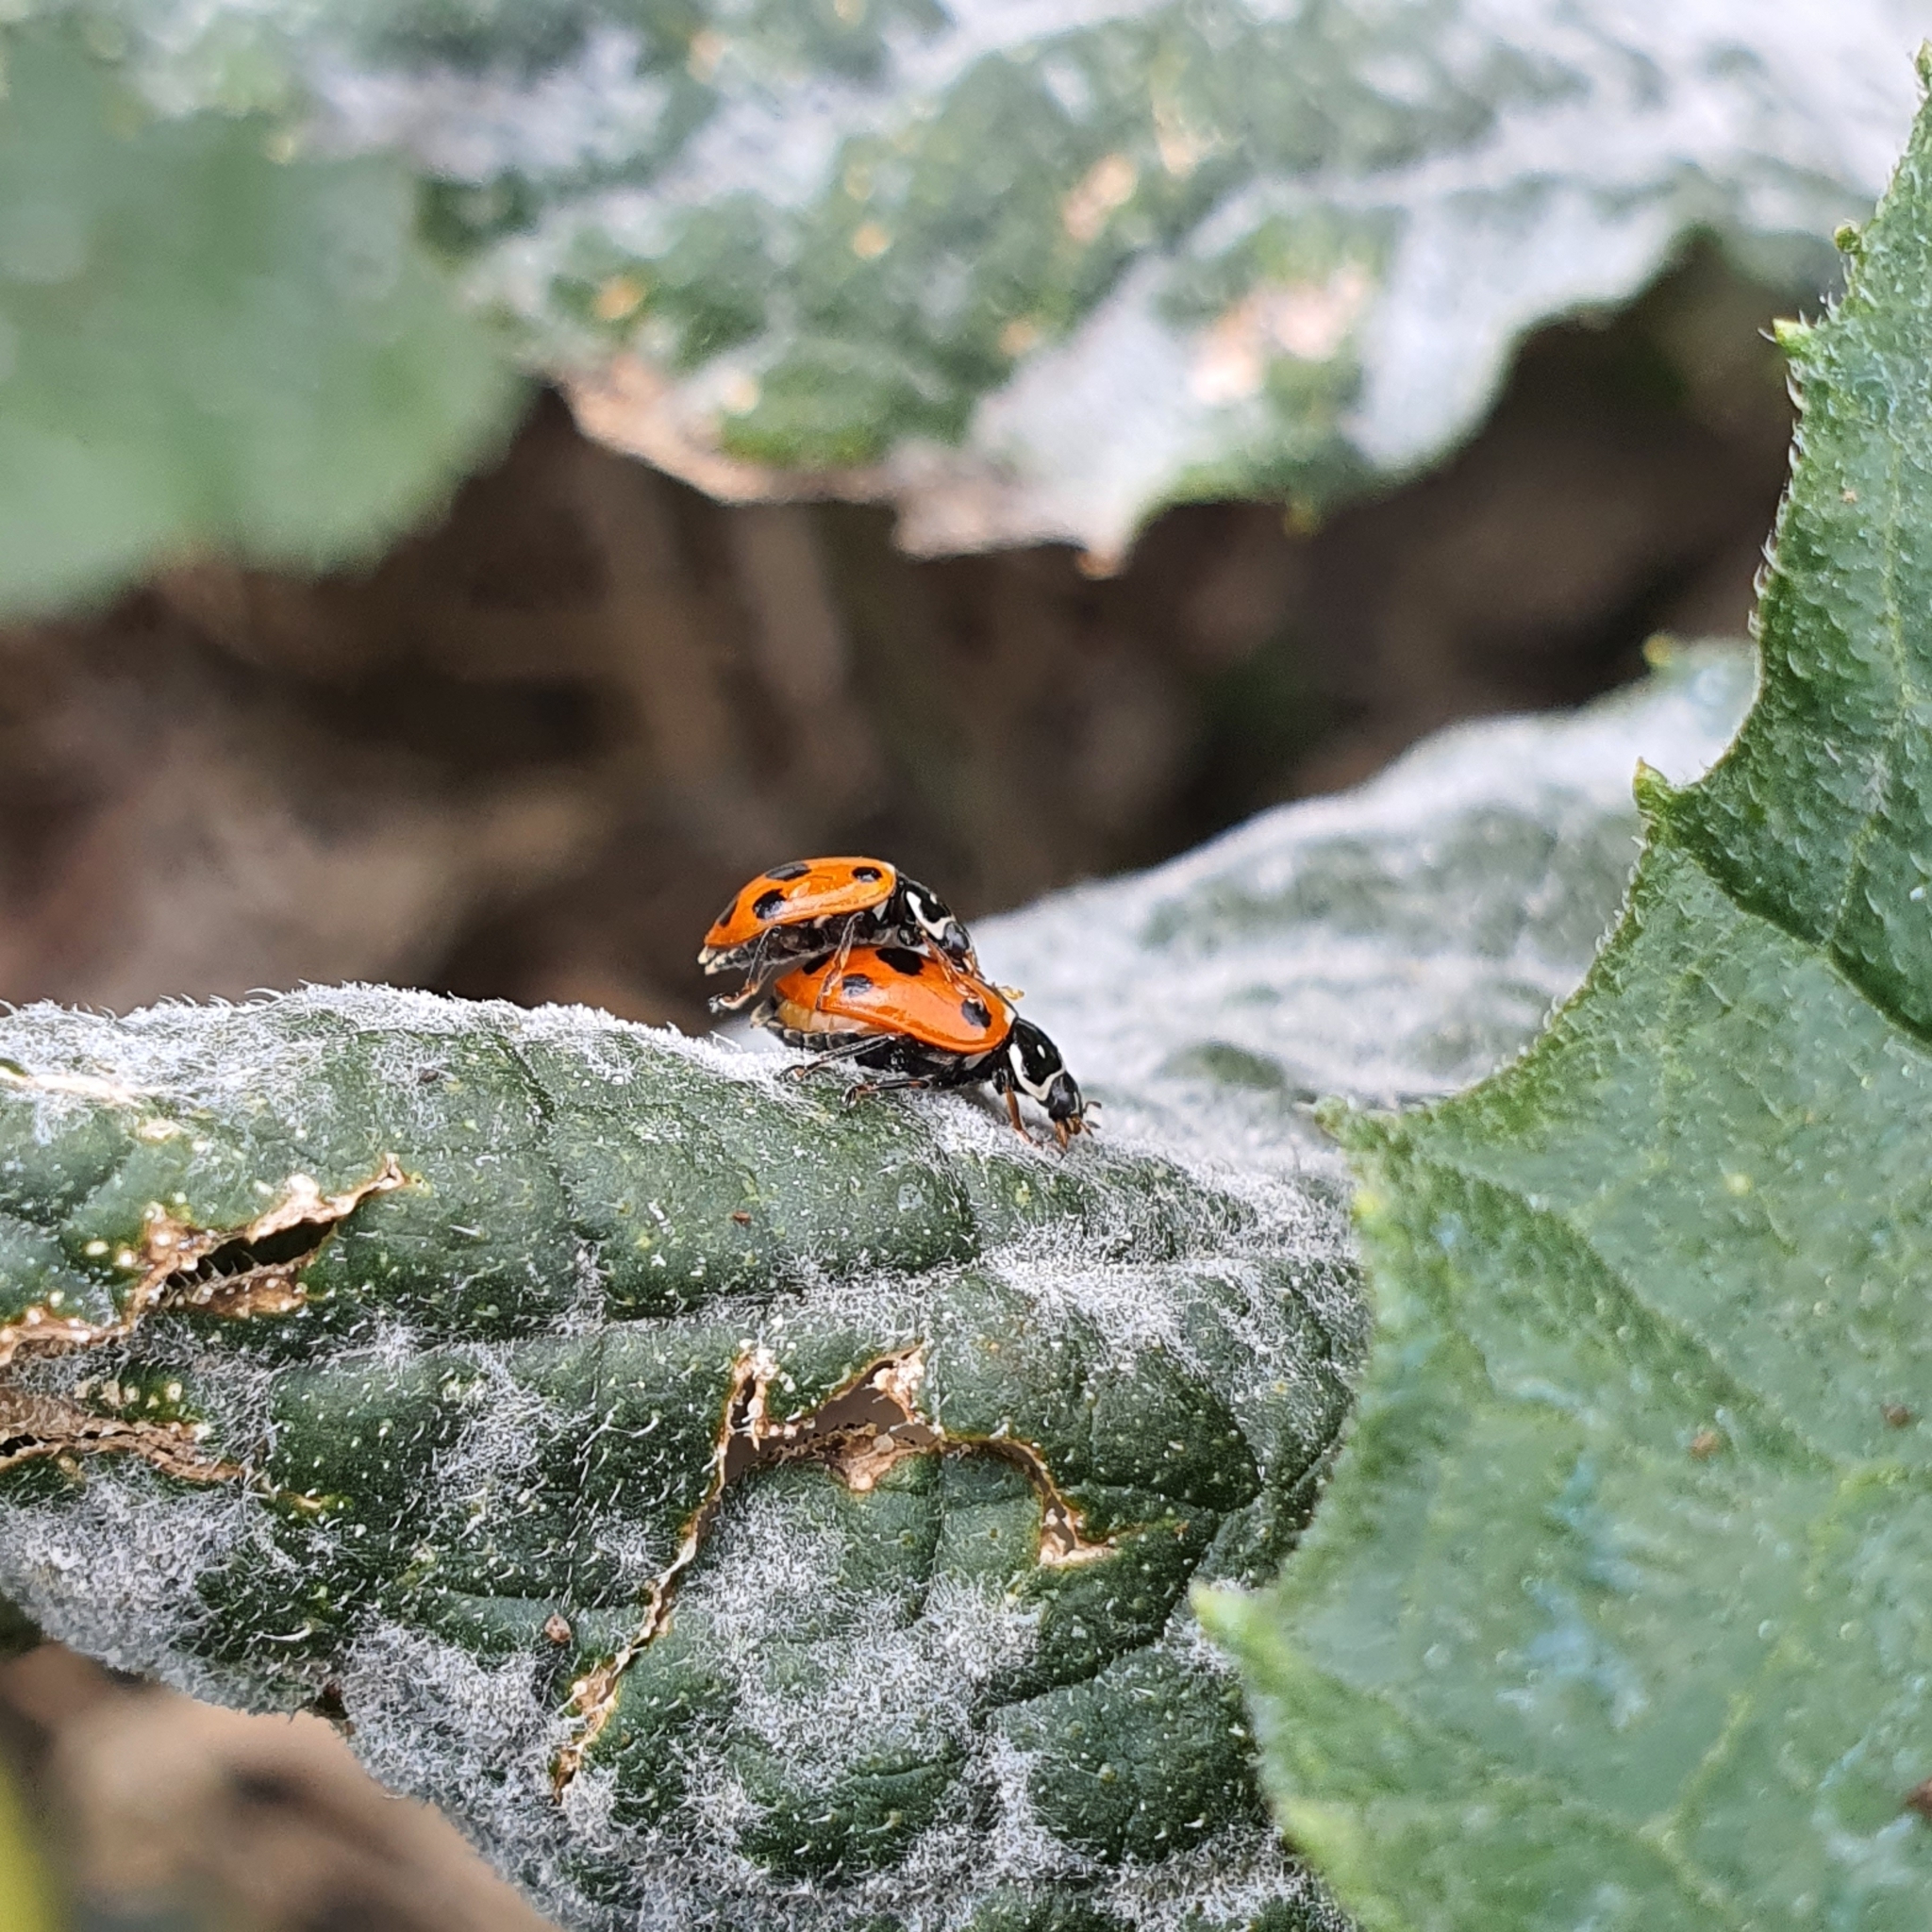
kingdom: Animalia
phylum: Arthropoda
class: Insecta
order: Coleoptera
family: Coccinellidae
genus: Hippodamia
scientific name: Hippodamia variegata
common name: Ladybird beetle
